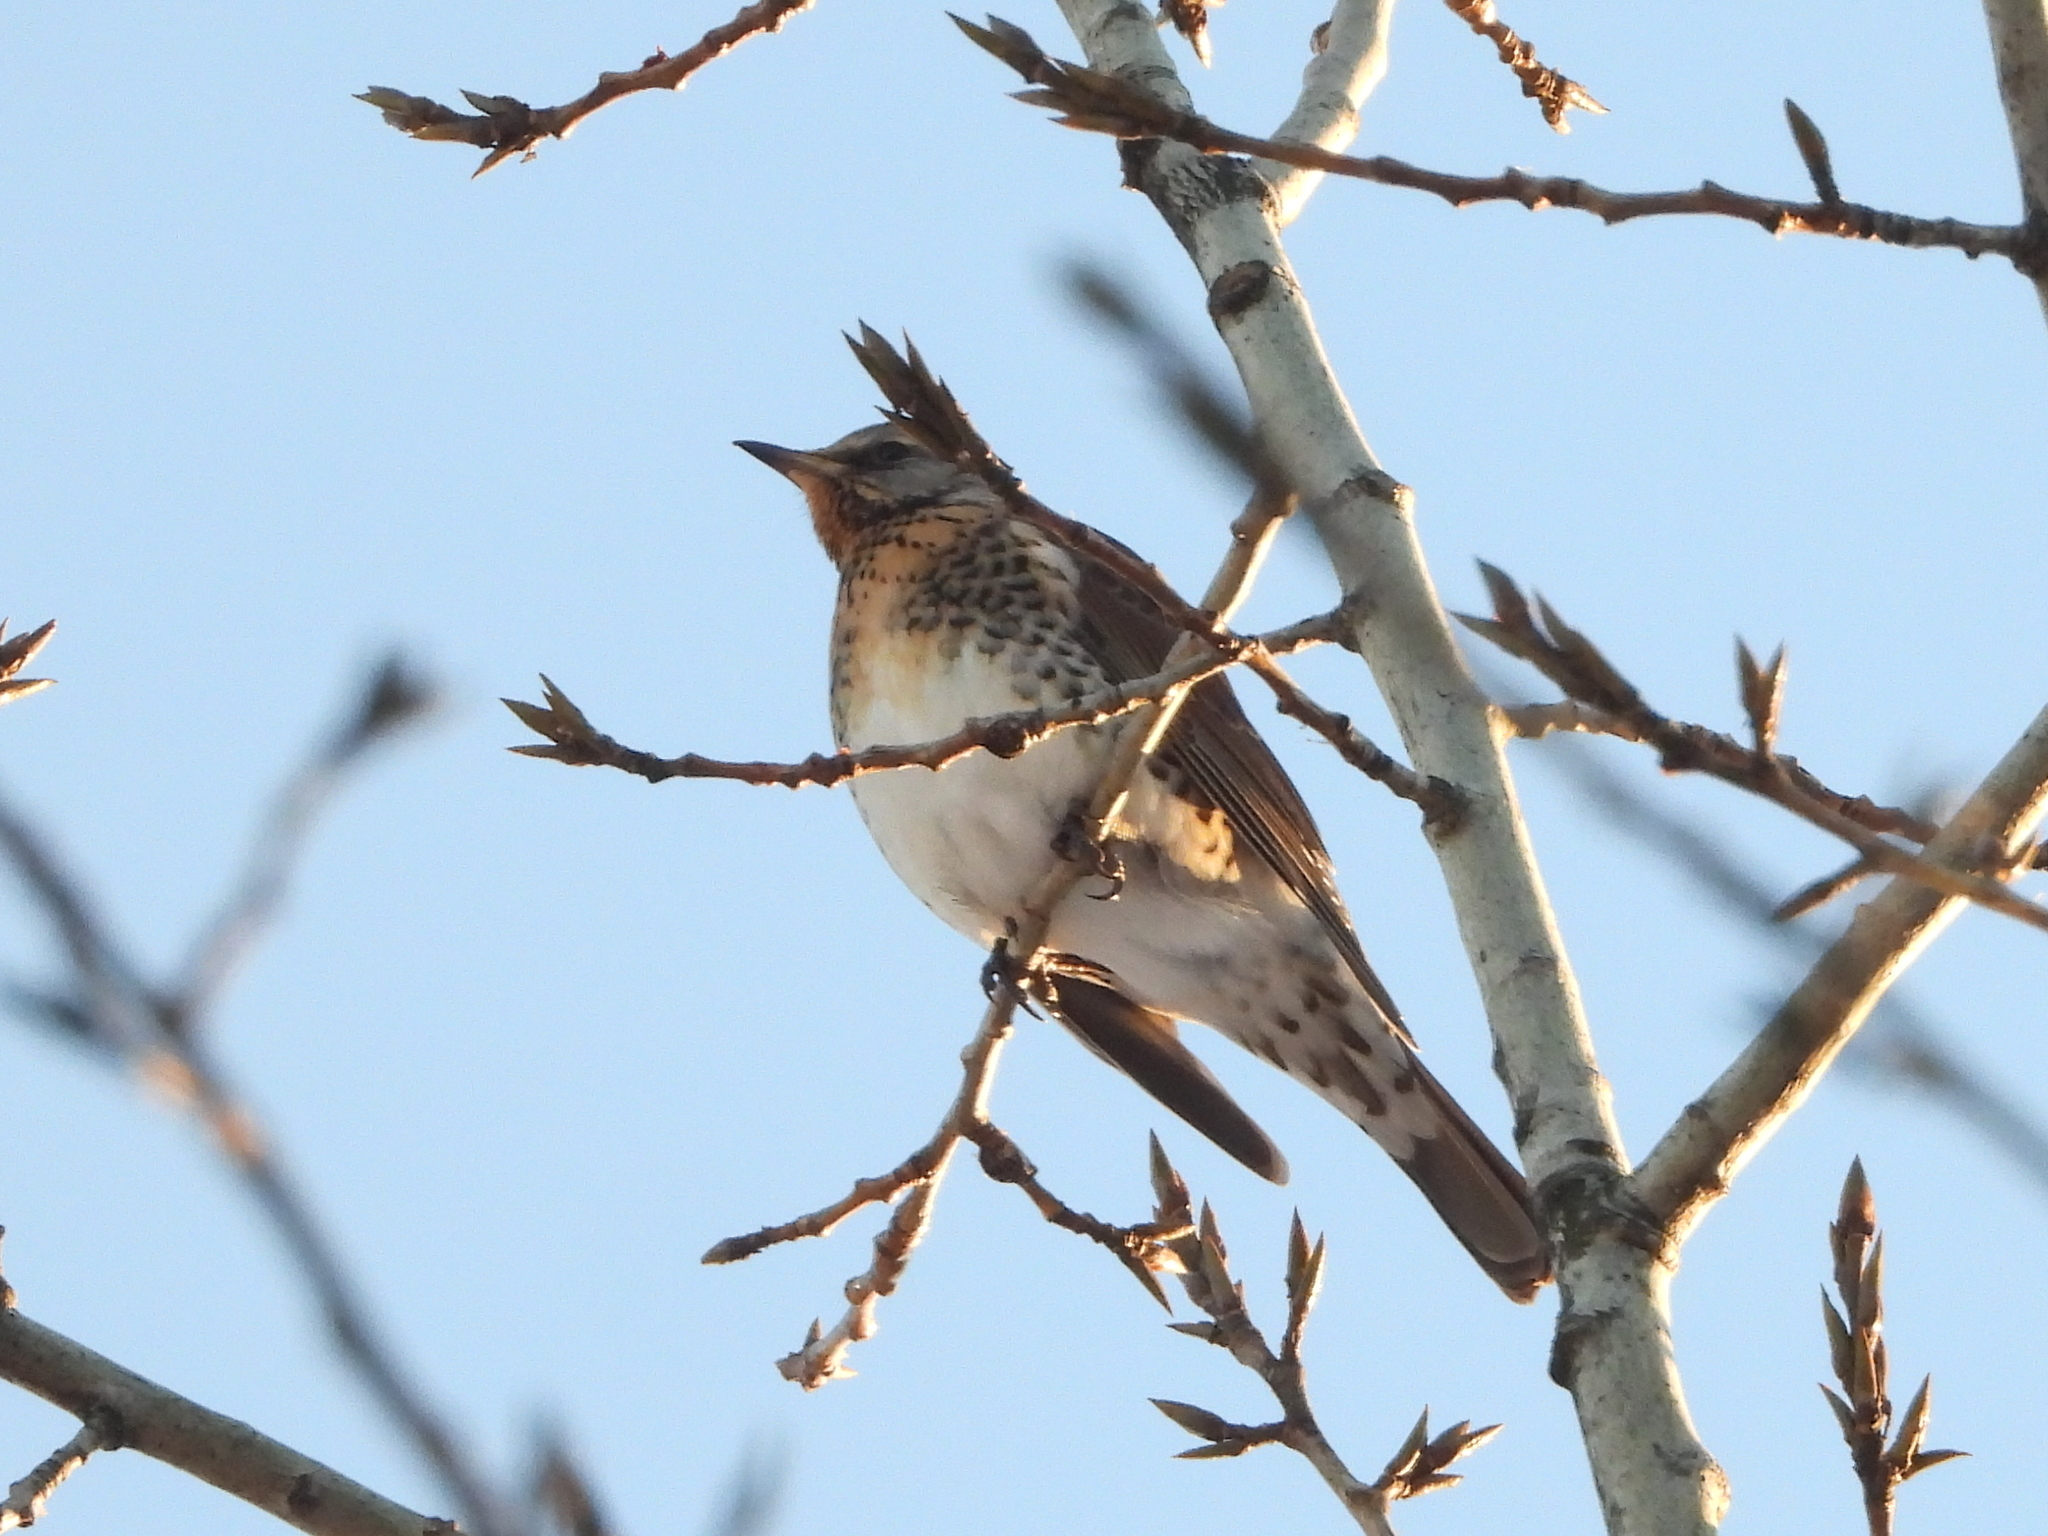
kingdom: Animalia
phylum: Chordata
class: Aves
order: Passeriformes
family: Turdidae
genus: Turdus
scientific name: Turdus pilaris
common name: Fieldfare
